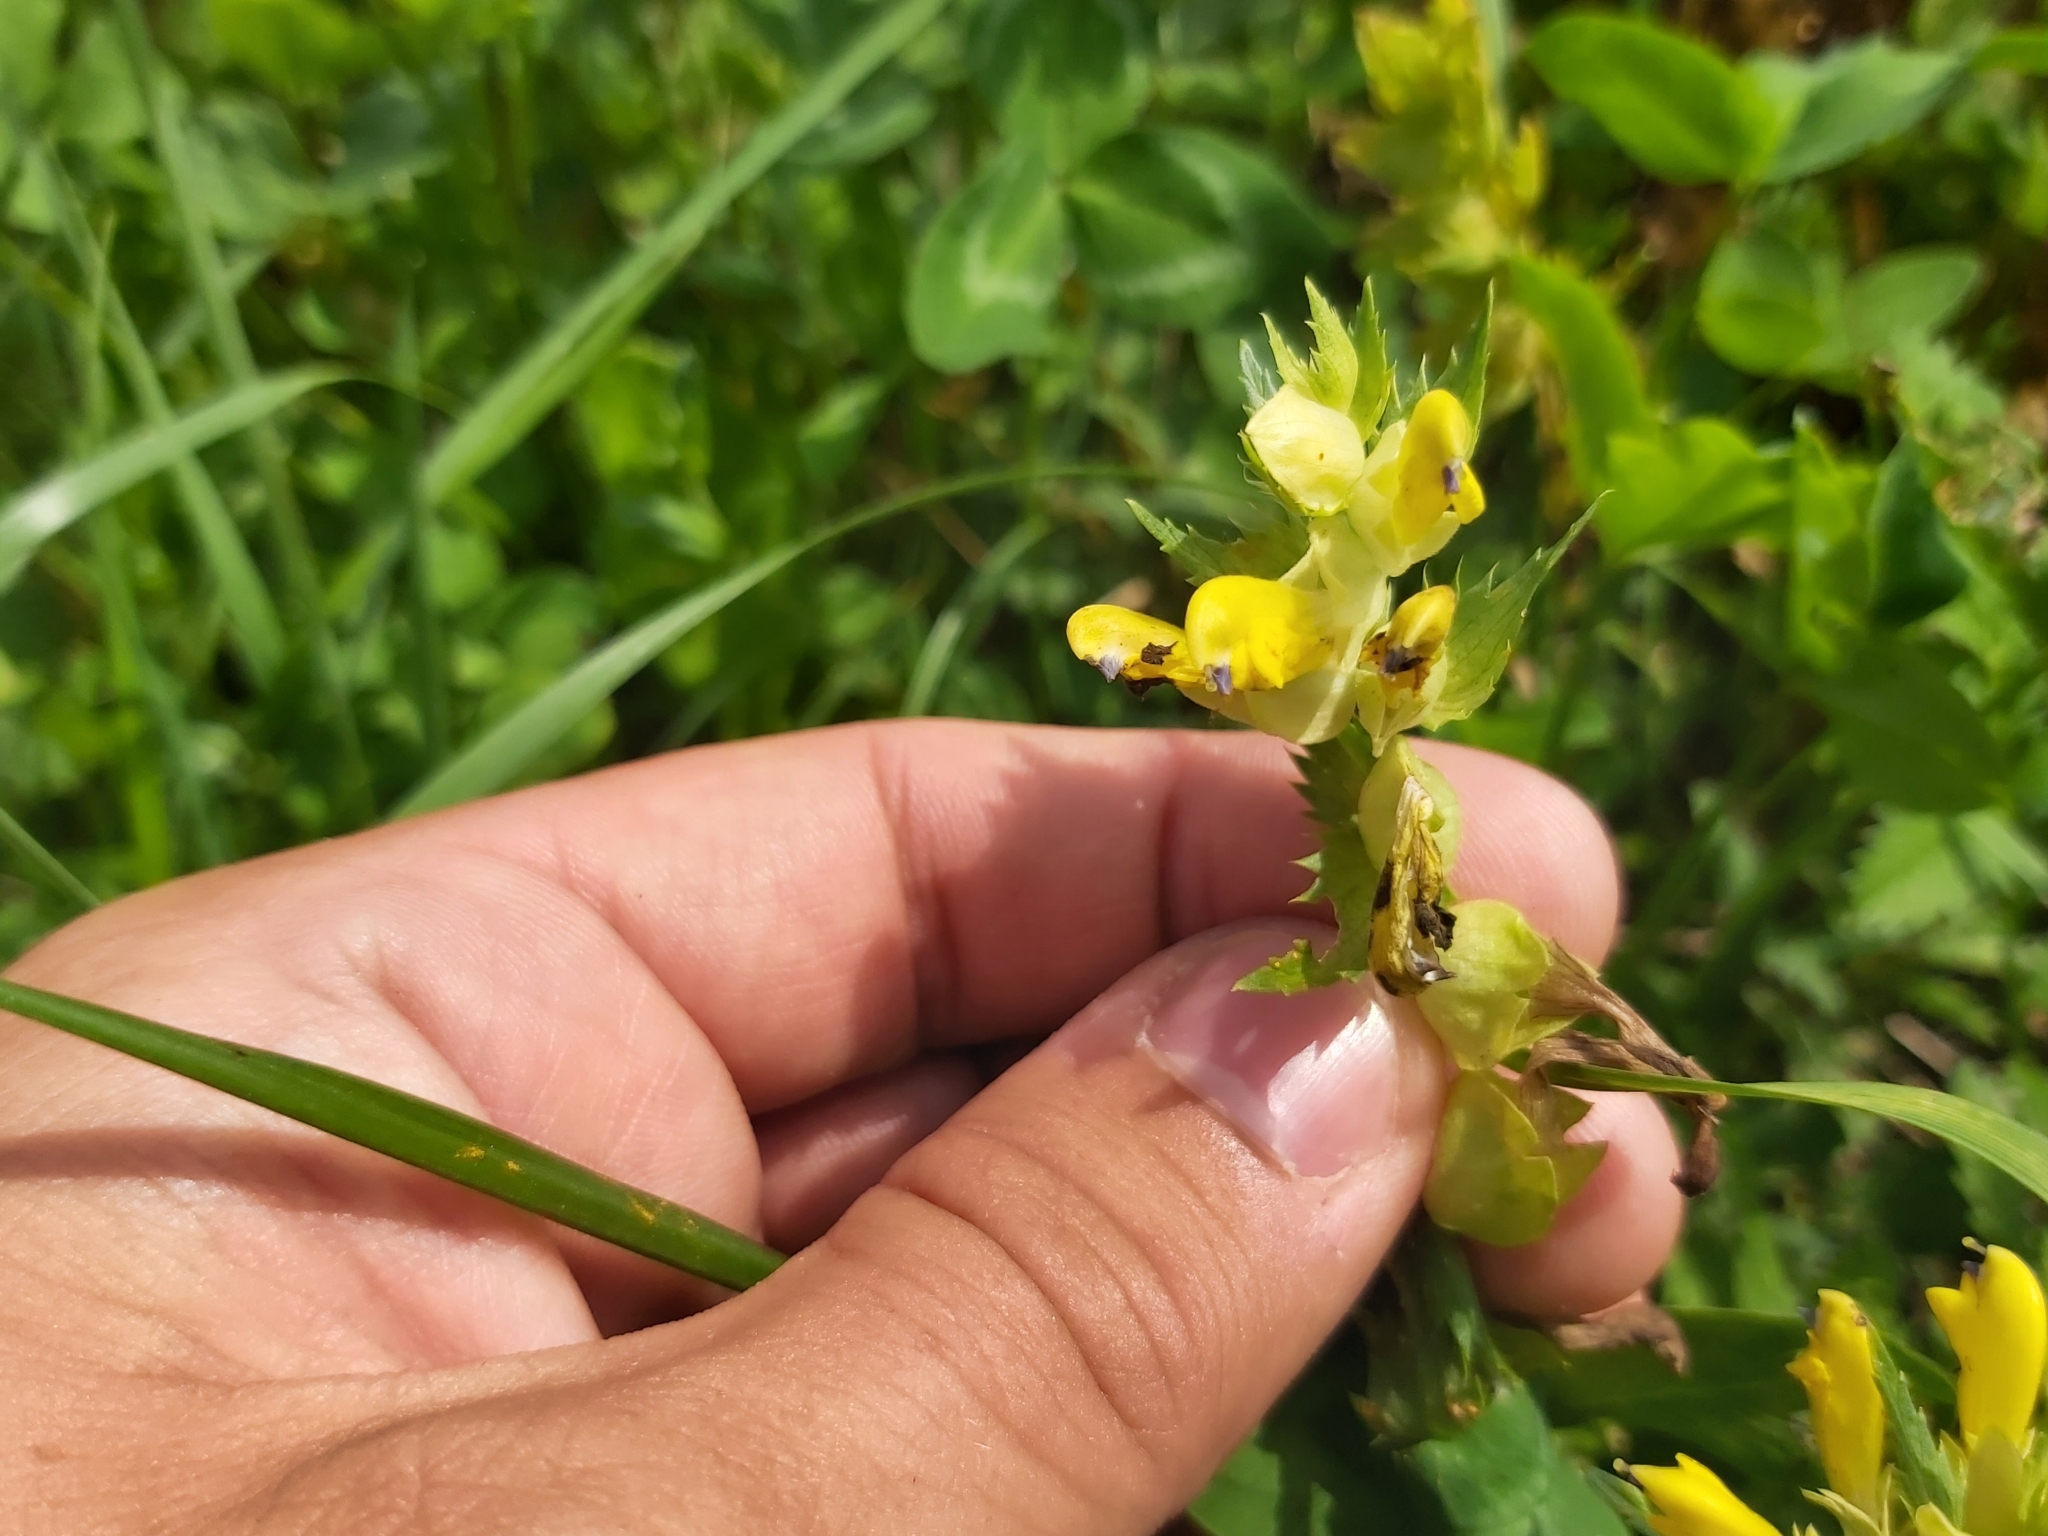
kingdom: Plantae
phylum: Tracheophyta
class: Magnoliopsida
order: Lamiales
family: Orobanchaceae
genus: Rhinanthus
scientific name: Rhinanthus serotinus
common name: Late-flowering yellow rattle
